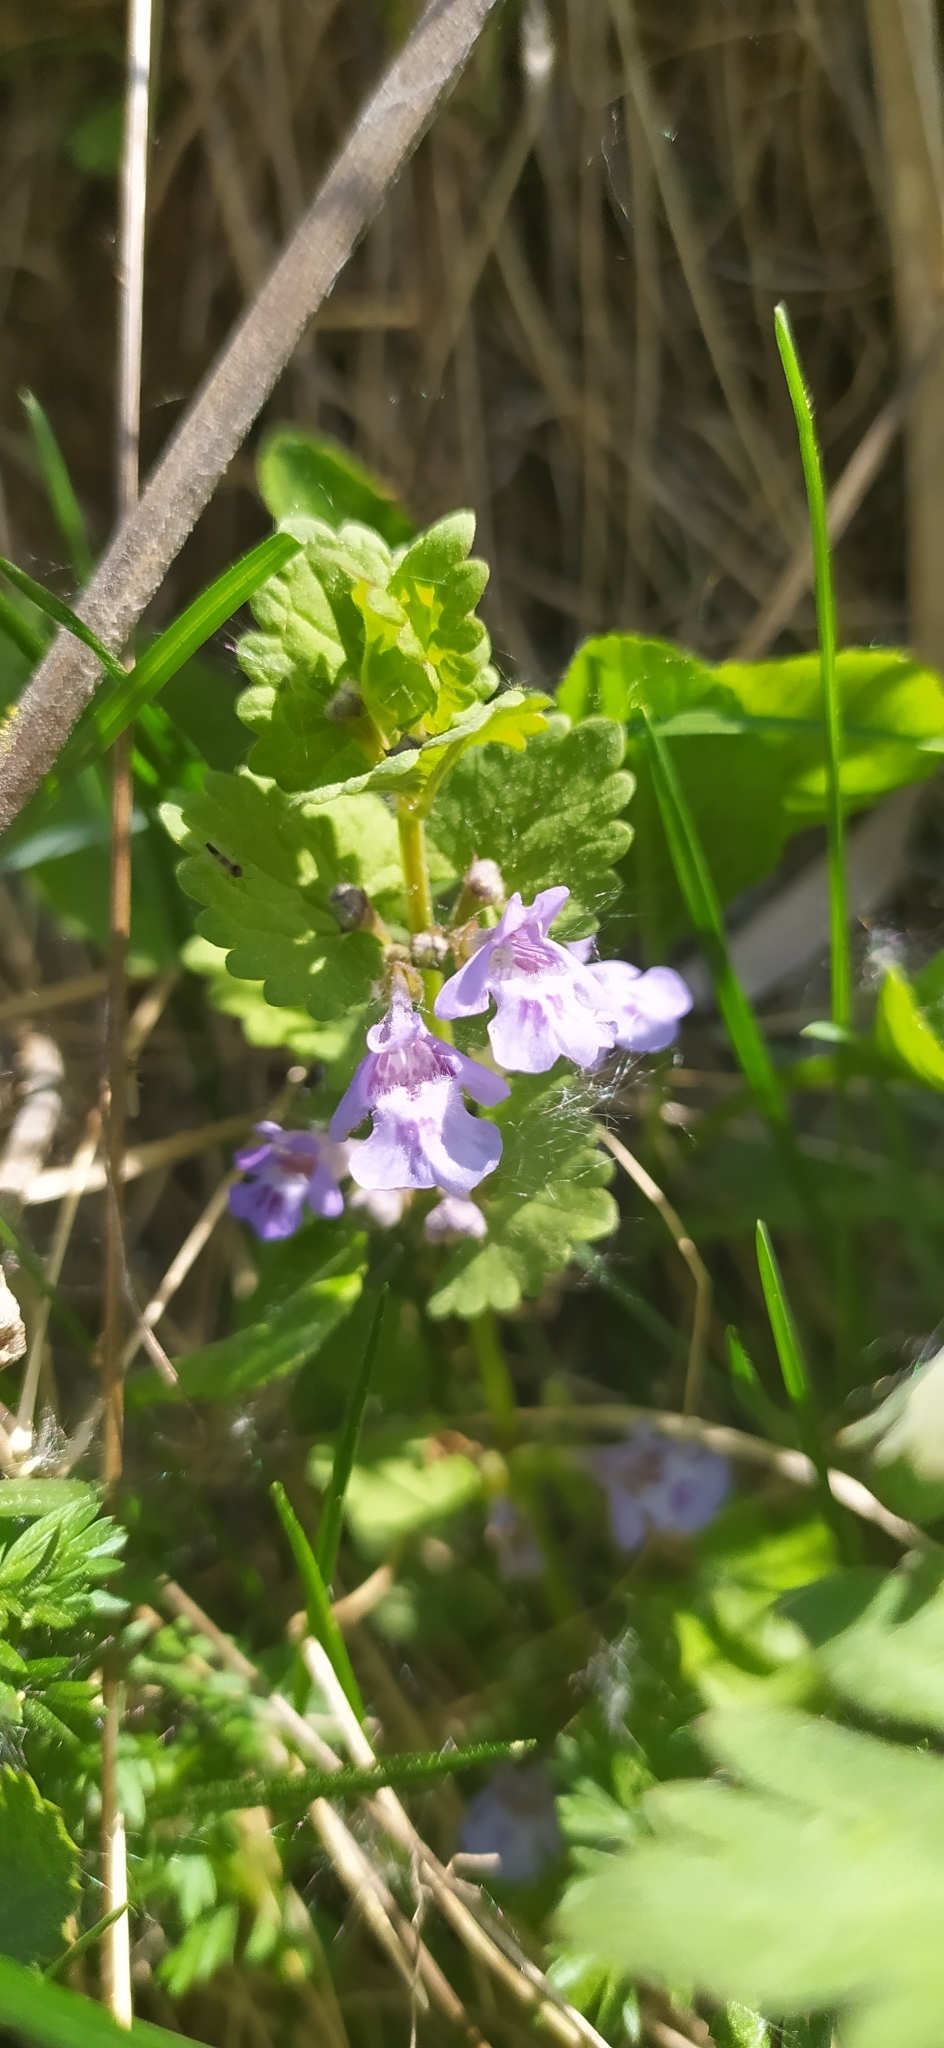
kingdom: Plantae
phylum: Tracheophyta
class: Magnoliopsida
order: Lamiales
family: Lamiaceae
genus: Glechoma
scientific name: Glechoma hederacea
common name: Ground ivy
